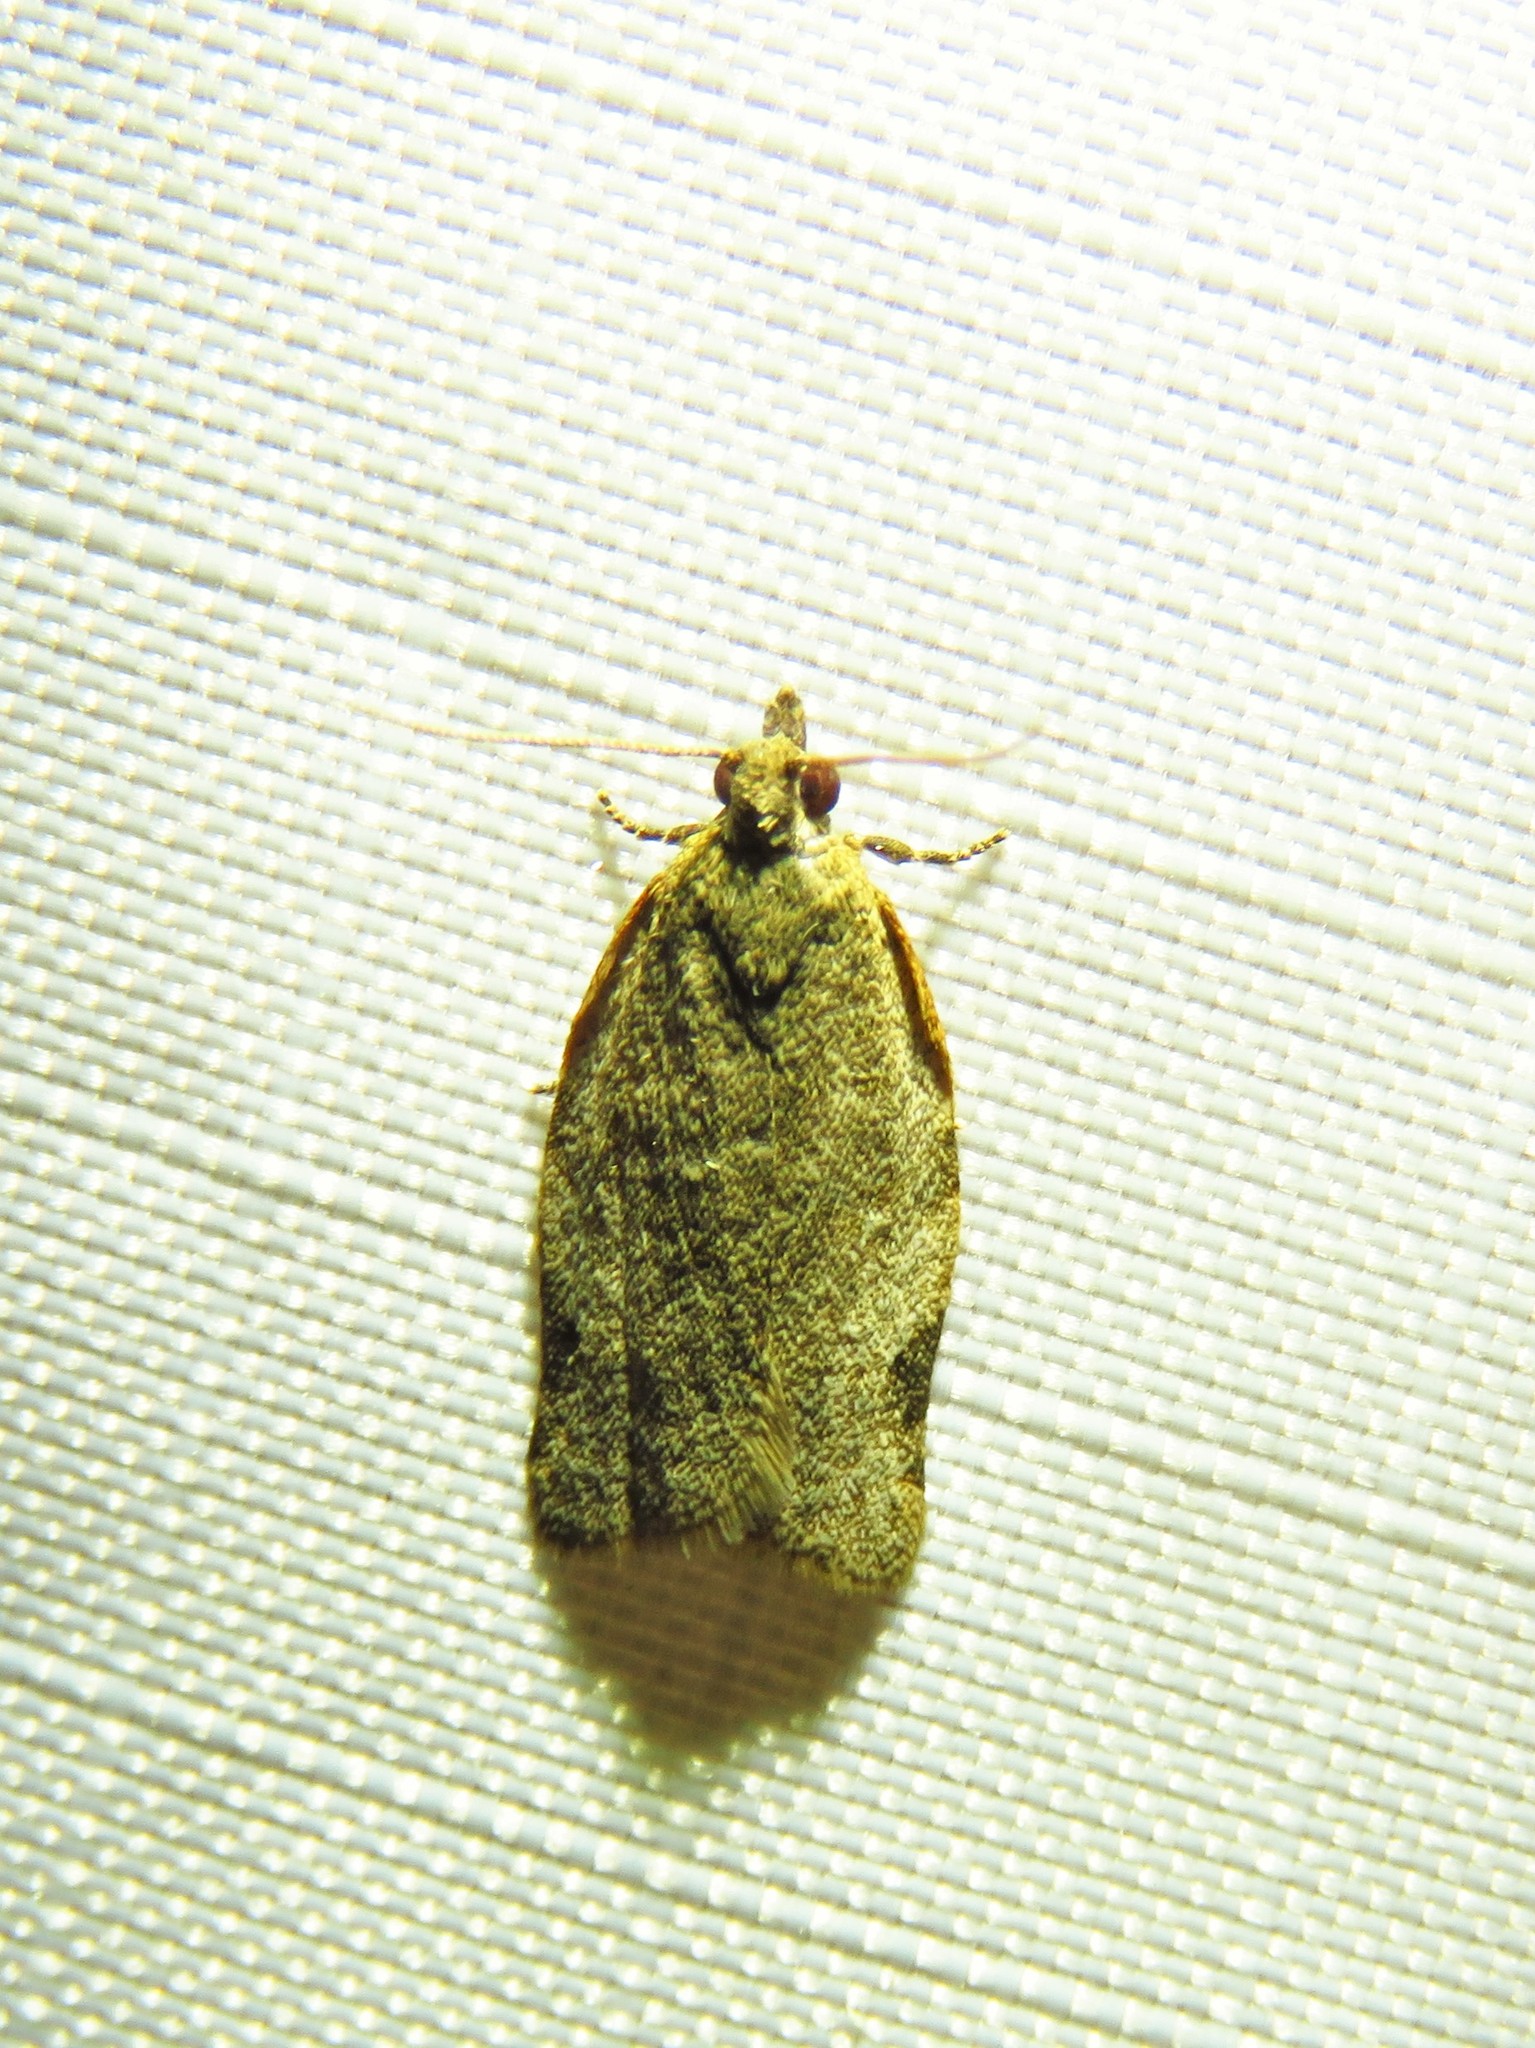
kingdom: Animalia
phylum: Arthropoda
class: Insecta
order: Lepidoptera
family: Tortricidae
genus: Clepsis
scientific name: Clepsis virescana
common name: Greenish apple moth
